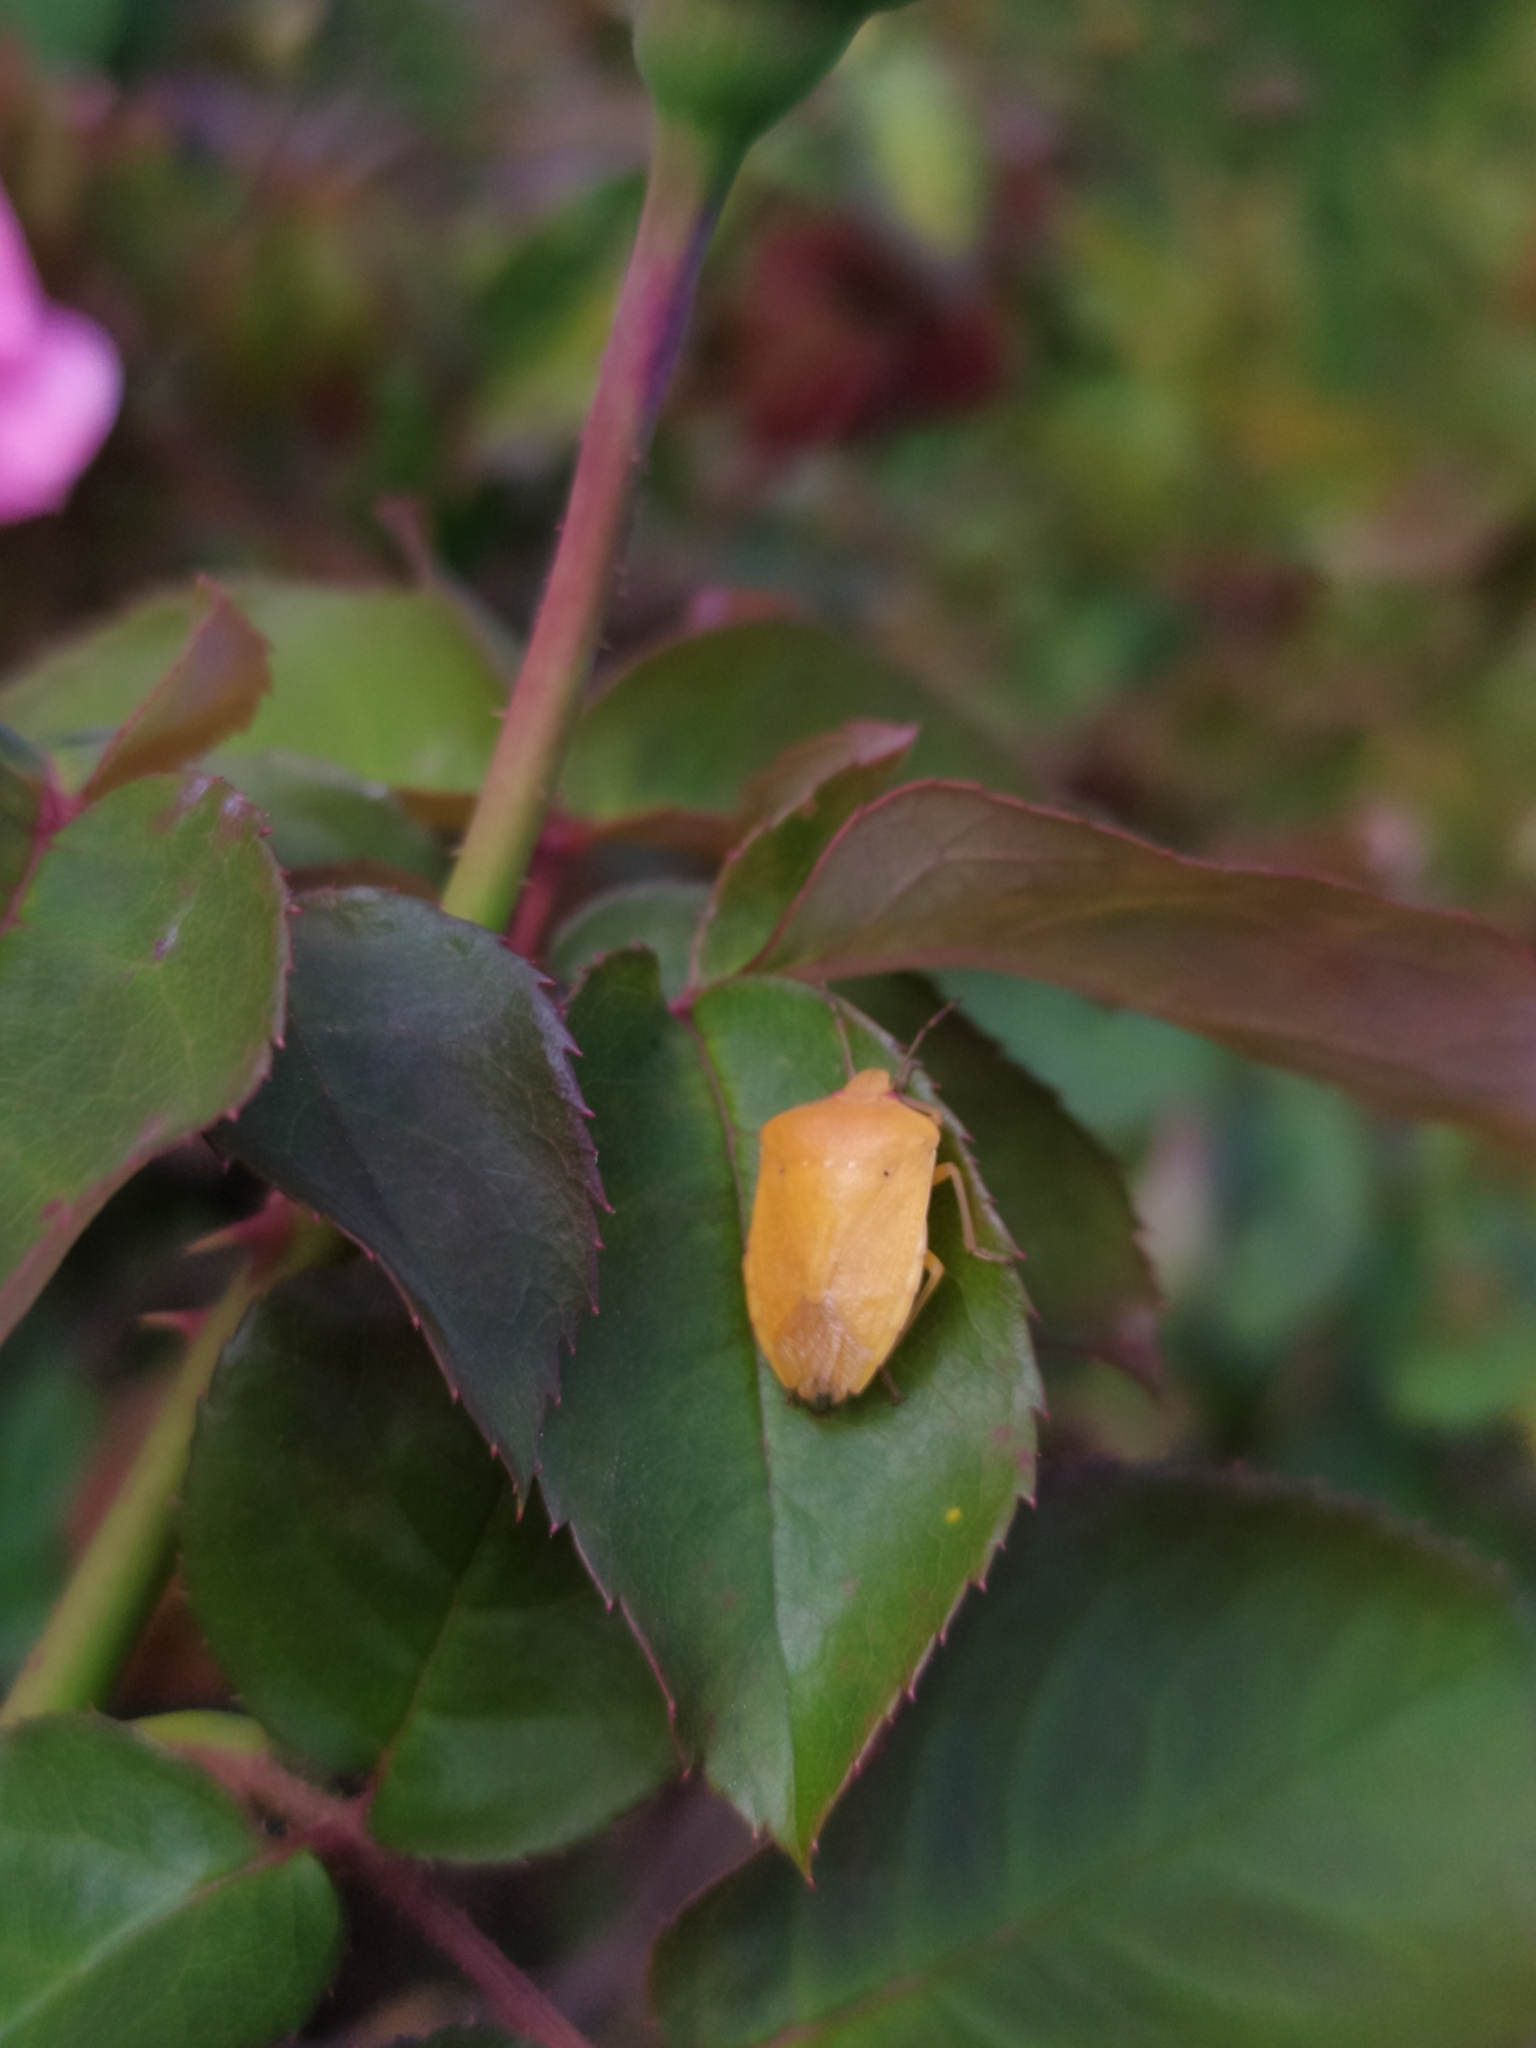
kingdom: Animalia
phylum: Arthropoda
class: Insecta
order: Hemiptera
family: Pentatomidae
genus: Nezara
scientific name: Nezara viridula
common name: Southern green stink bug
